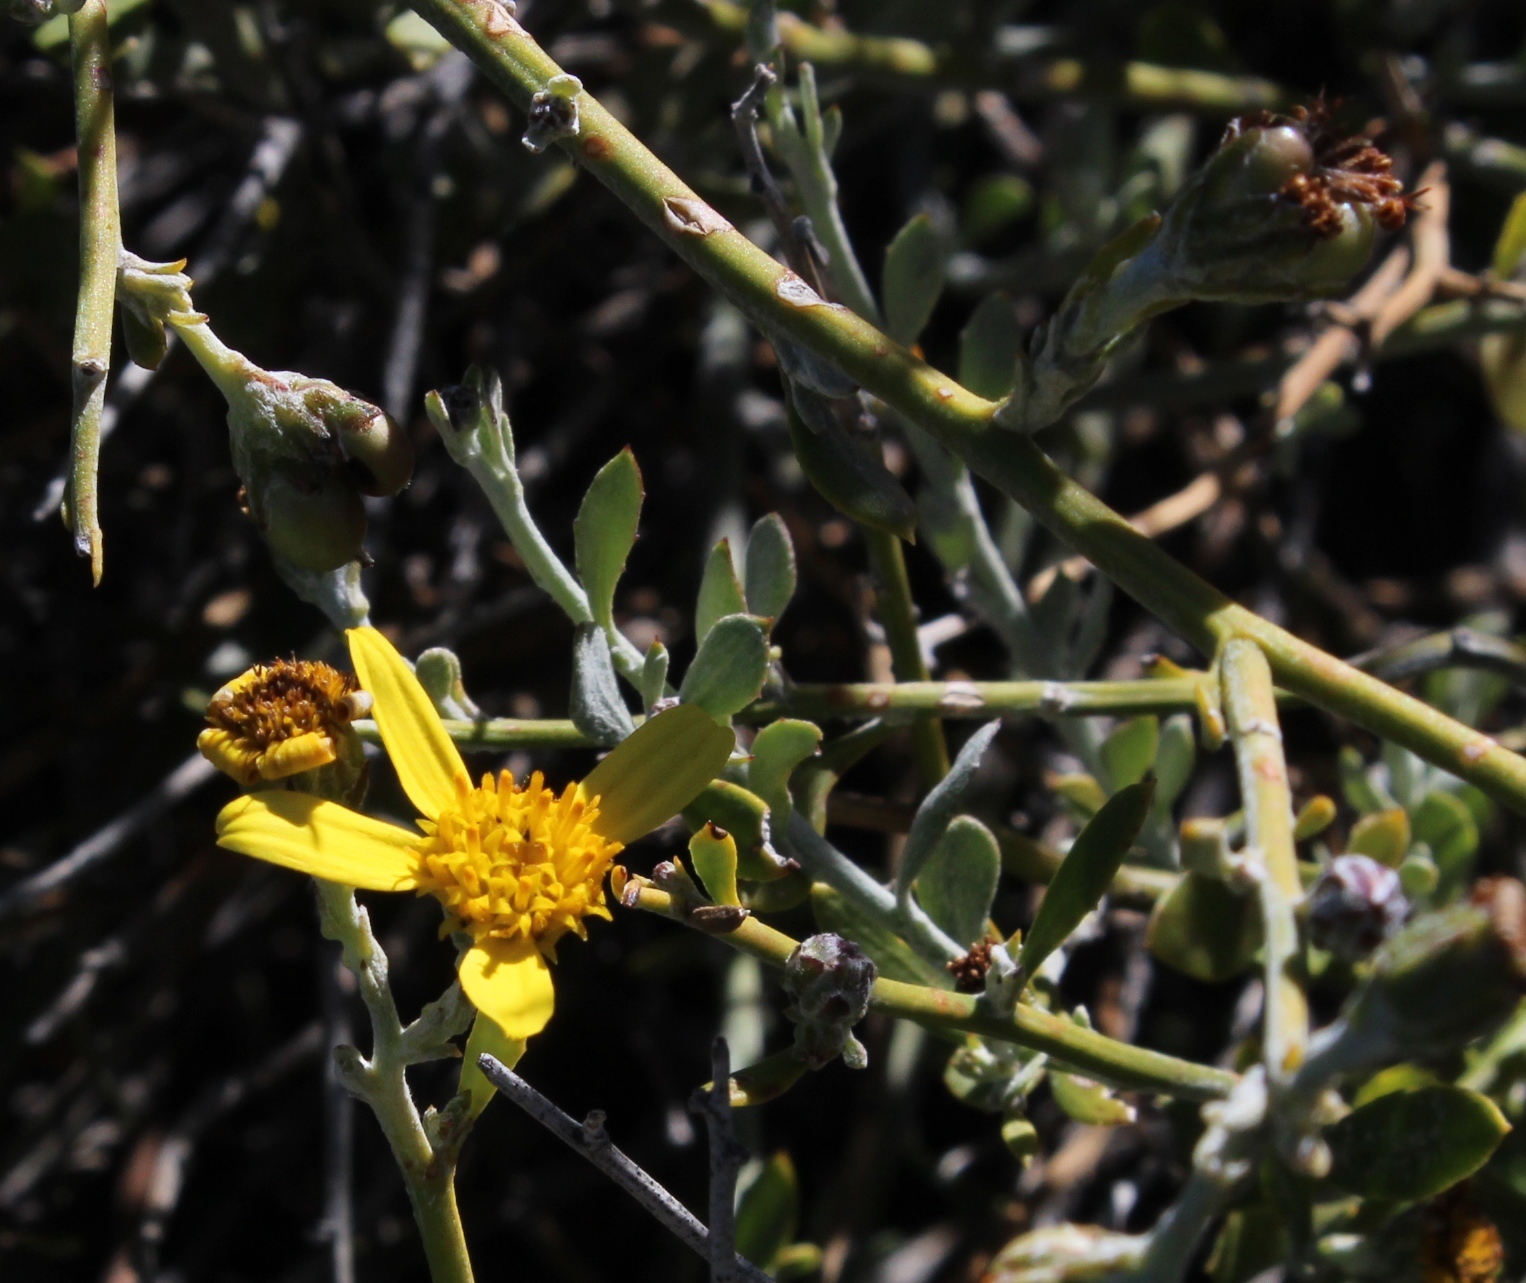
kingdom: Plantae
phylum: Tracheophyta
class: Magnoliopsida
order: Asterales
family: Asteraceae
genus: Osteospermum
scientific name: Osteospermum incanum
